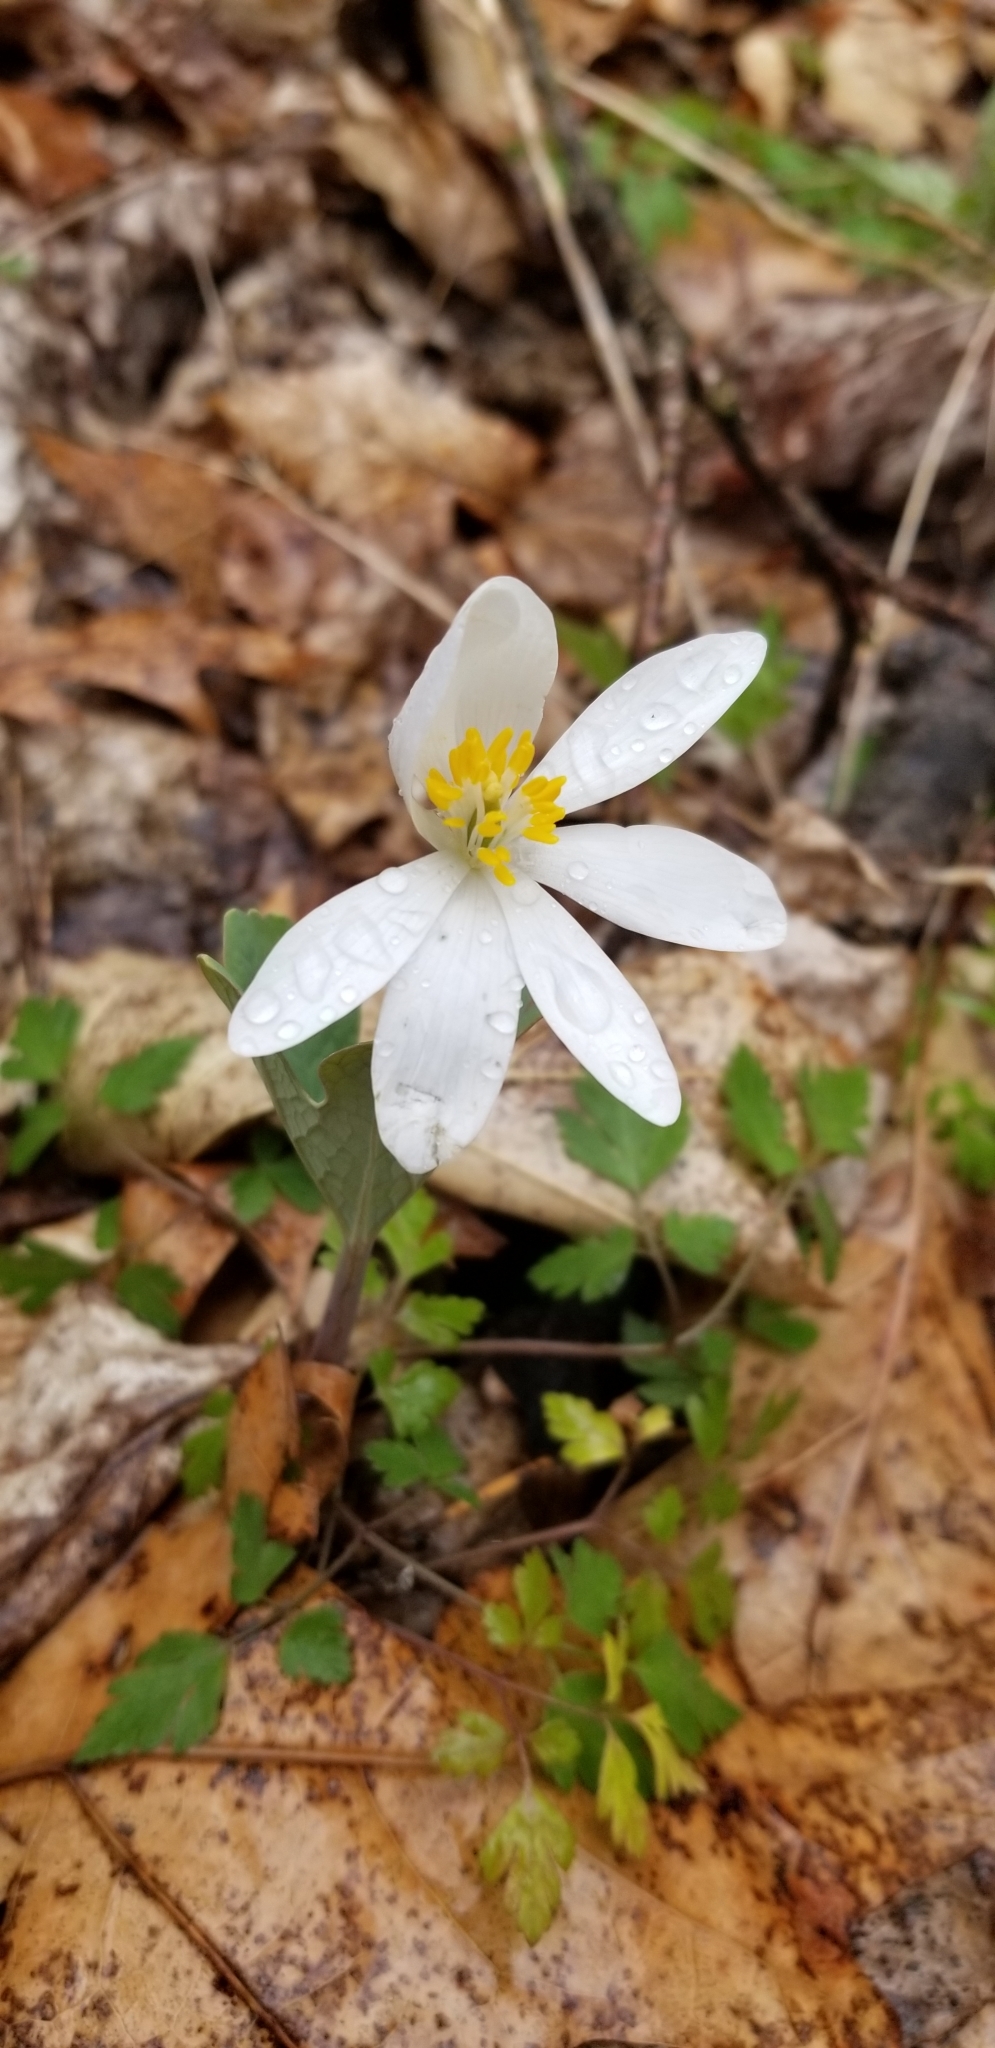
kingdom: Plantae
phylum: Tracheophyta
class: Magnoliopsida
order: Ranunculales
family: Papaveraceae
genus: Sanguinaria
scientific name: Sanguinaria canadensis
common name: Bloodroot
